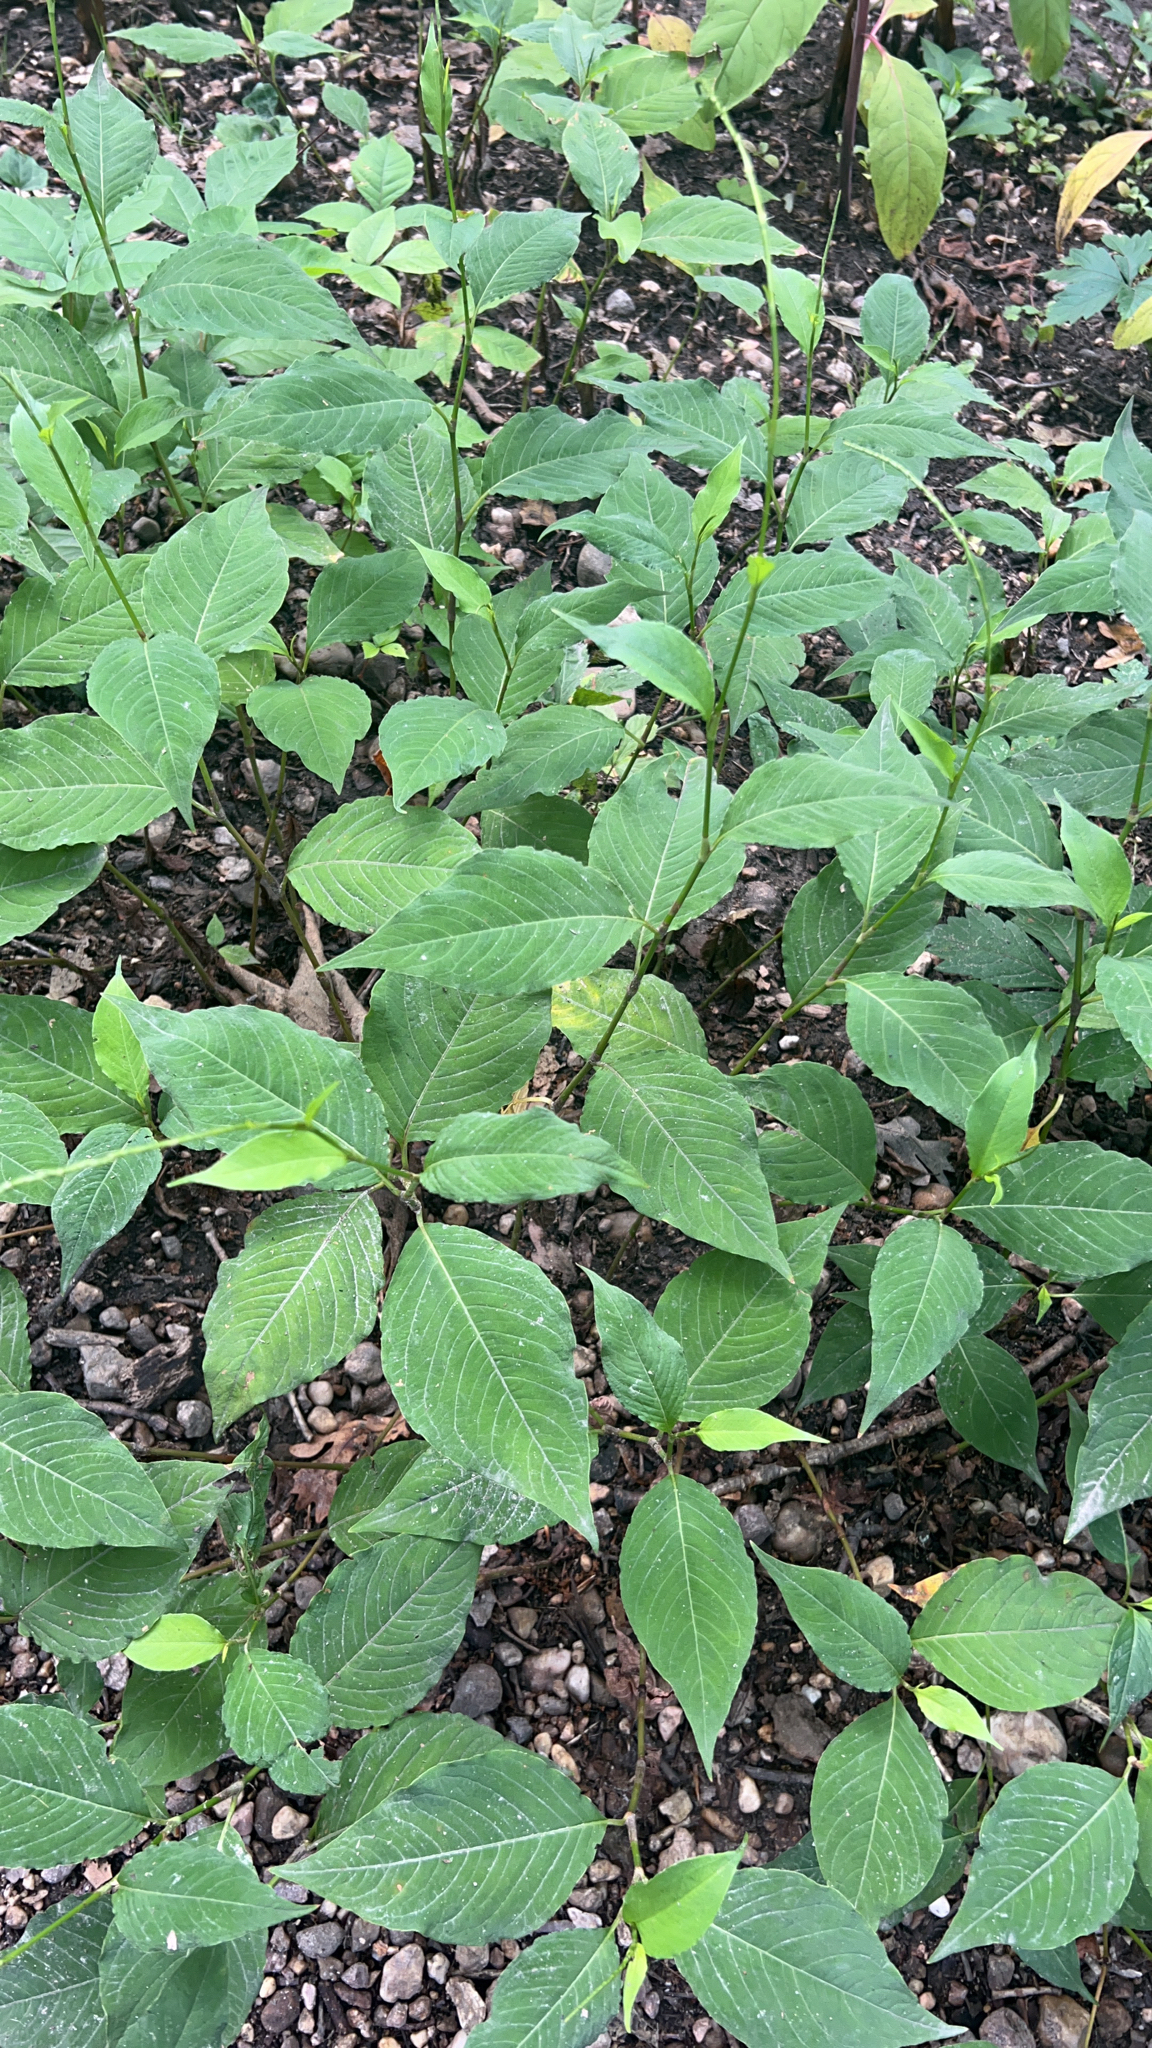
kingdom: Plantae
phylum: Tracheophyta
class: Magnoliopsida
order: Caryophyllales
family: Polygonaceae
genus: Persicaria
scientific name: Persicaria virginiana
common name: Jumpseed
